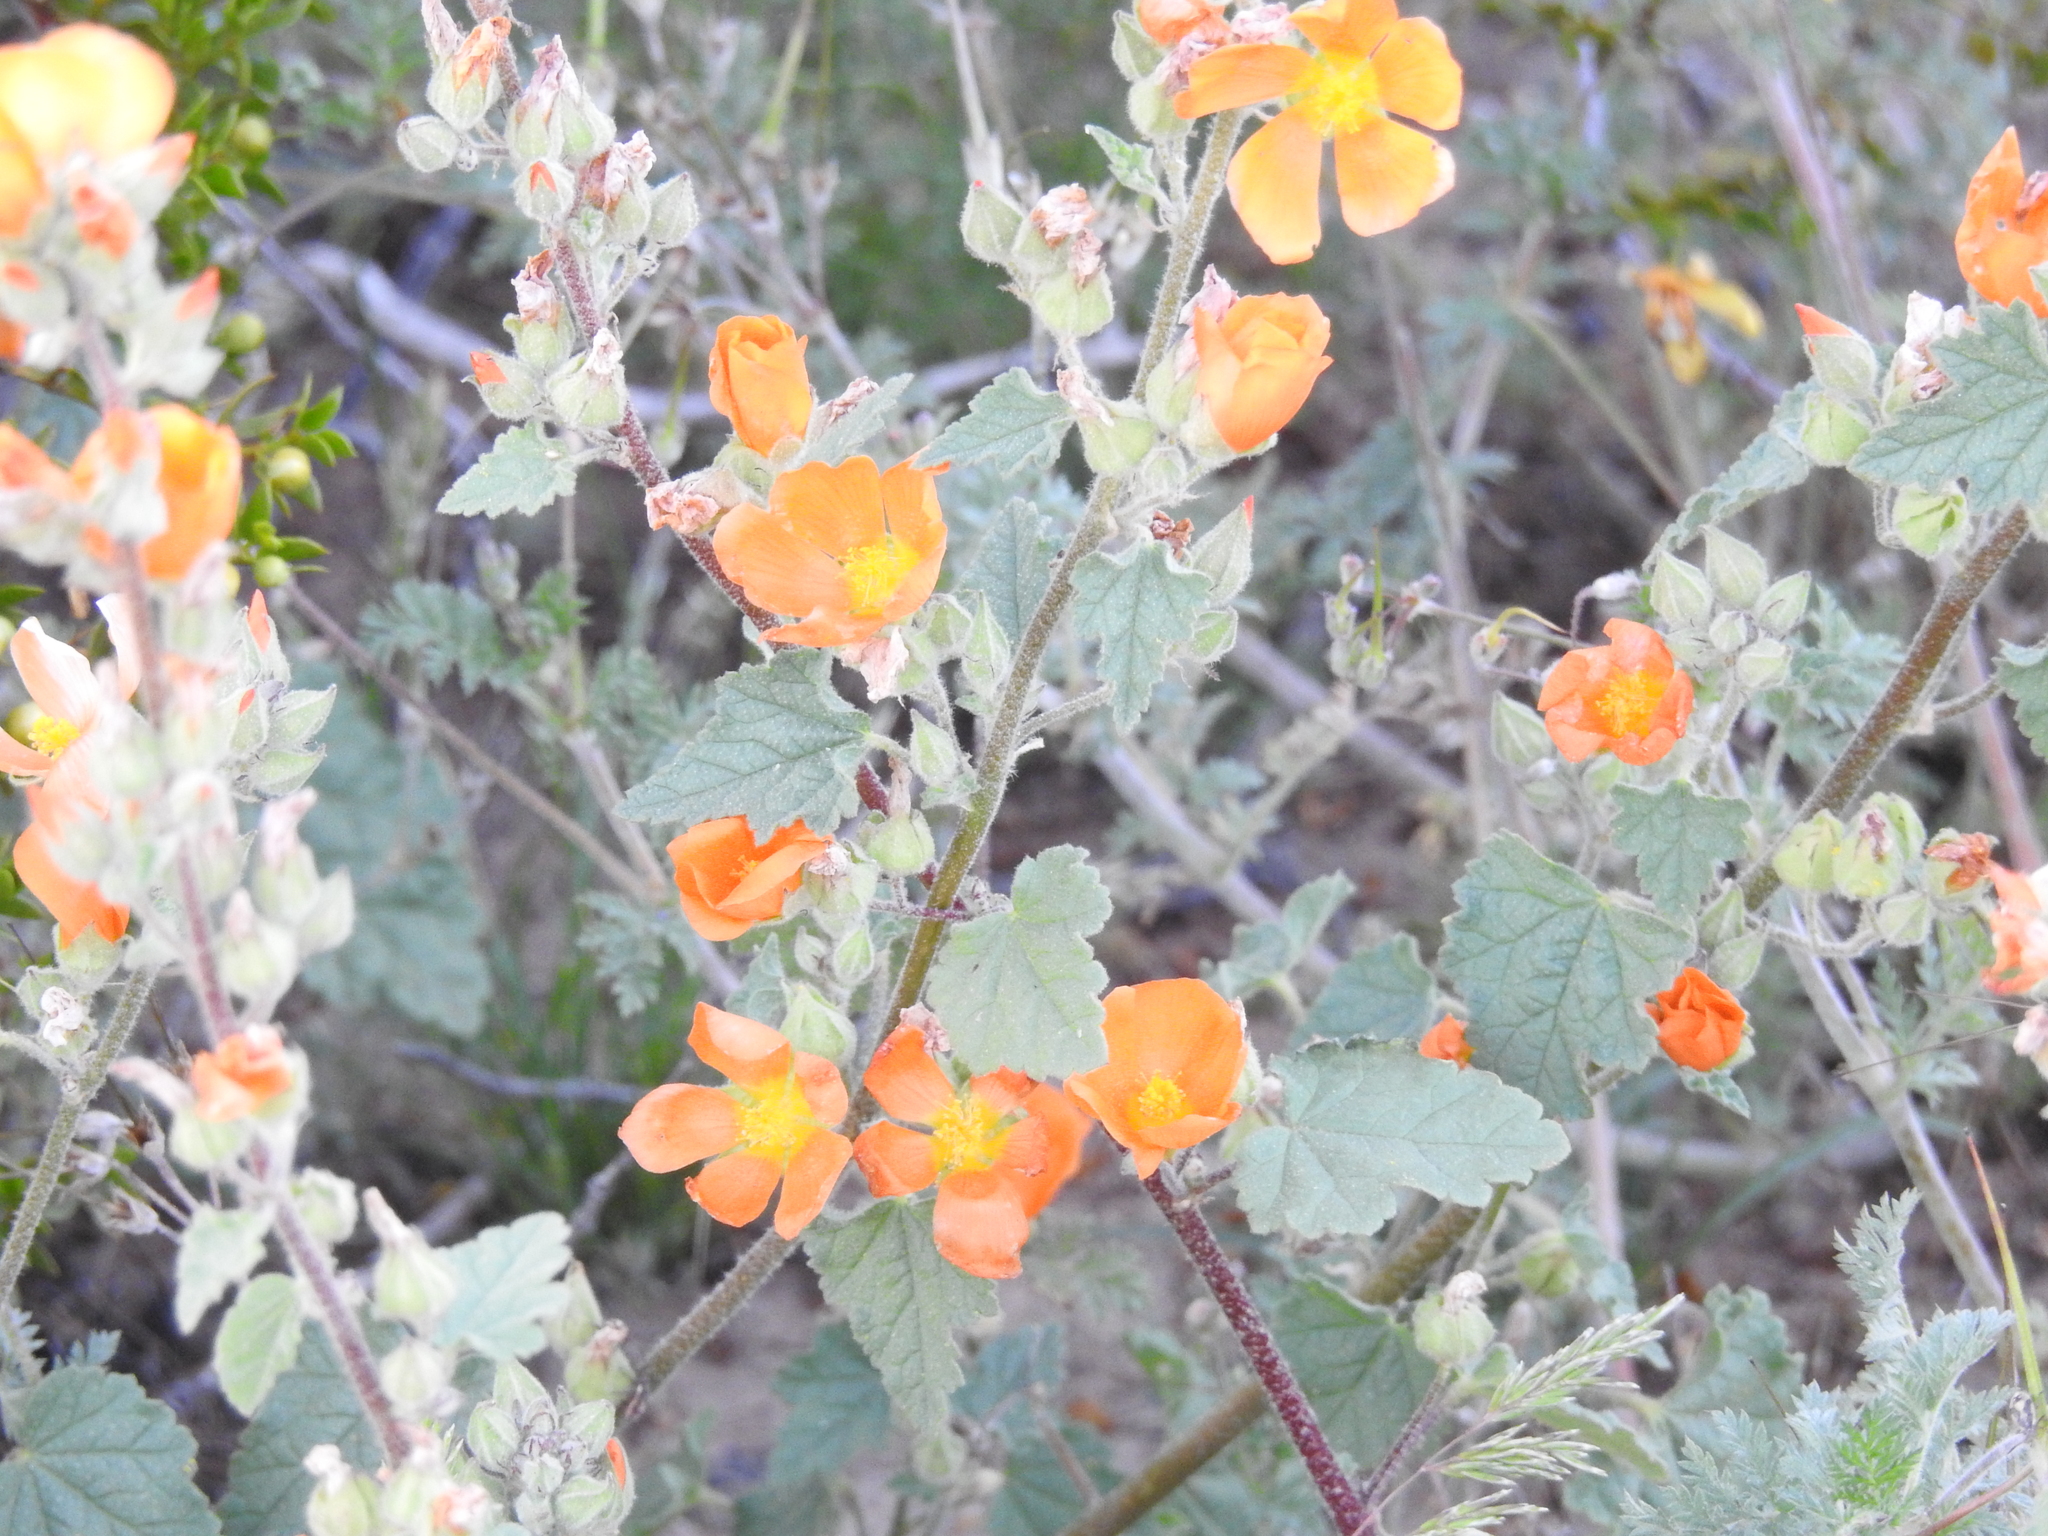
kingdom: Plantae
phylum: Tracheophyta
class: Magnoliopsida
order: Malvales
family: Malvaceae
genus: Sphaeralcea
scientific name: Sphaeralcea
